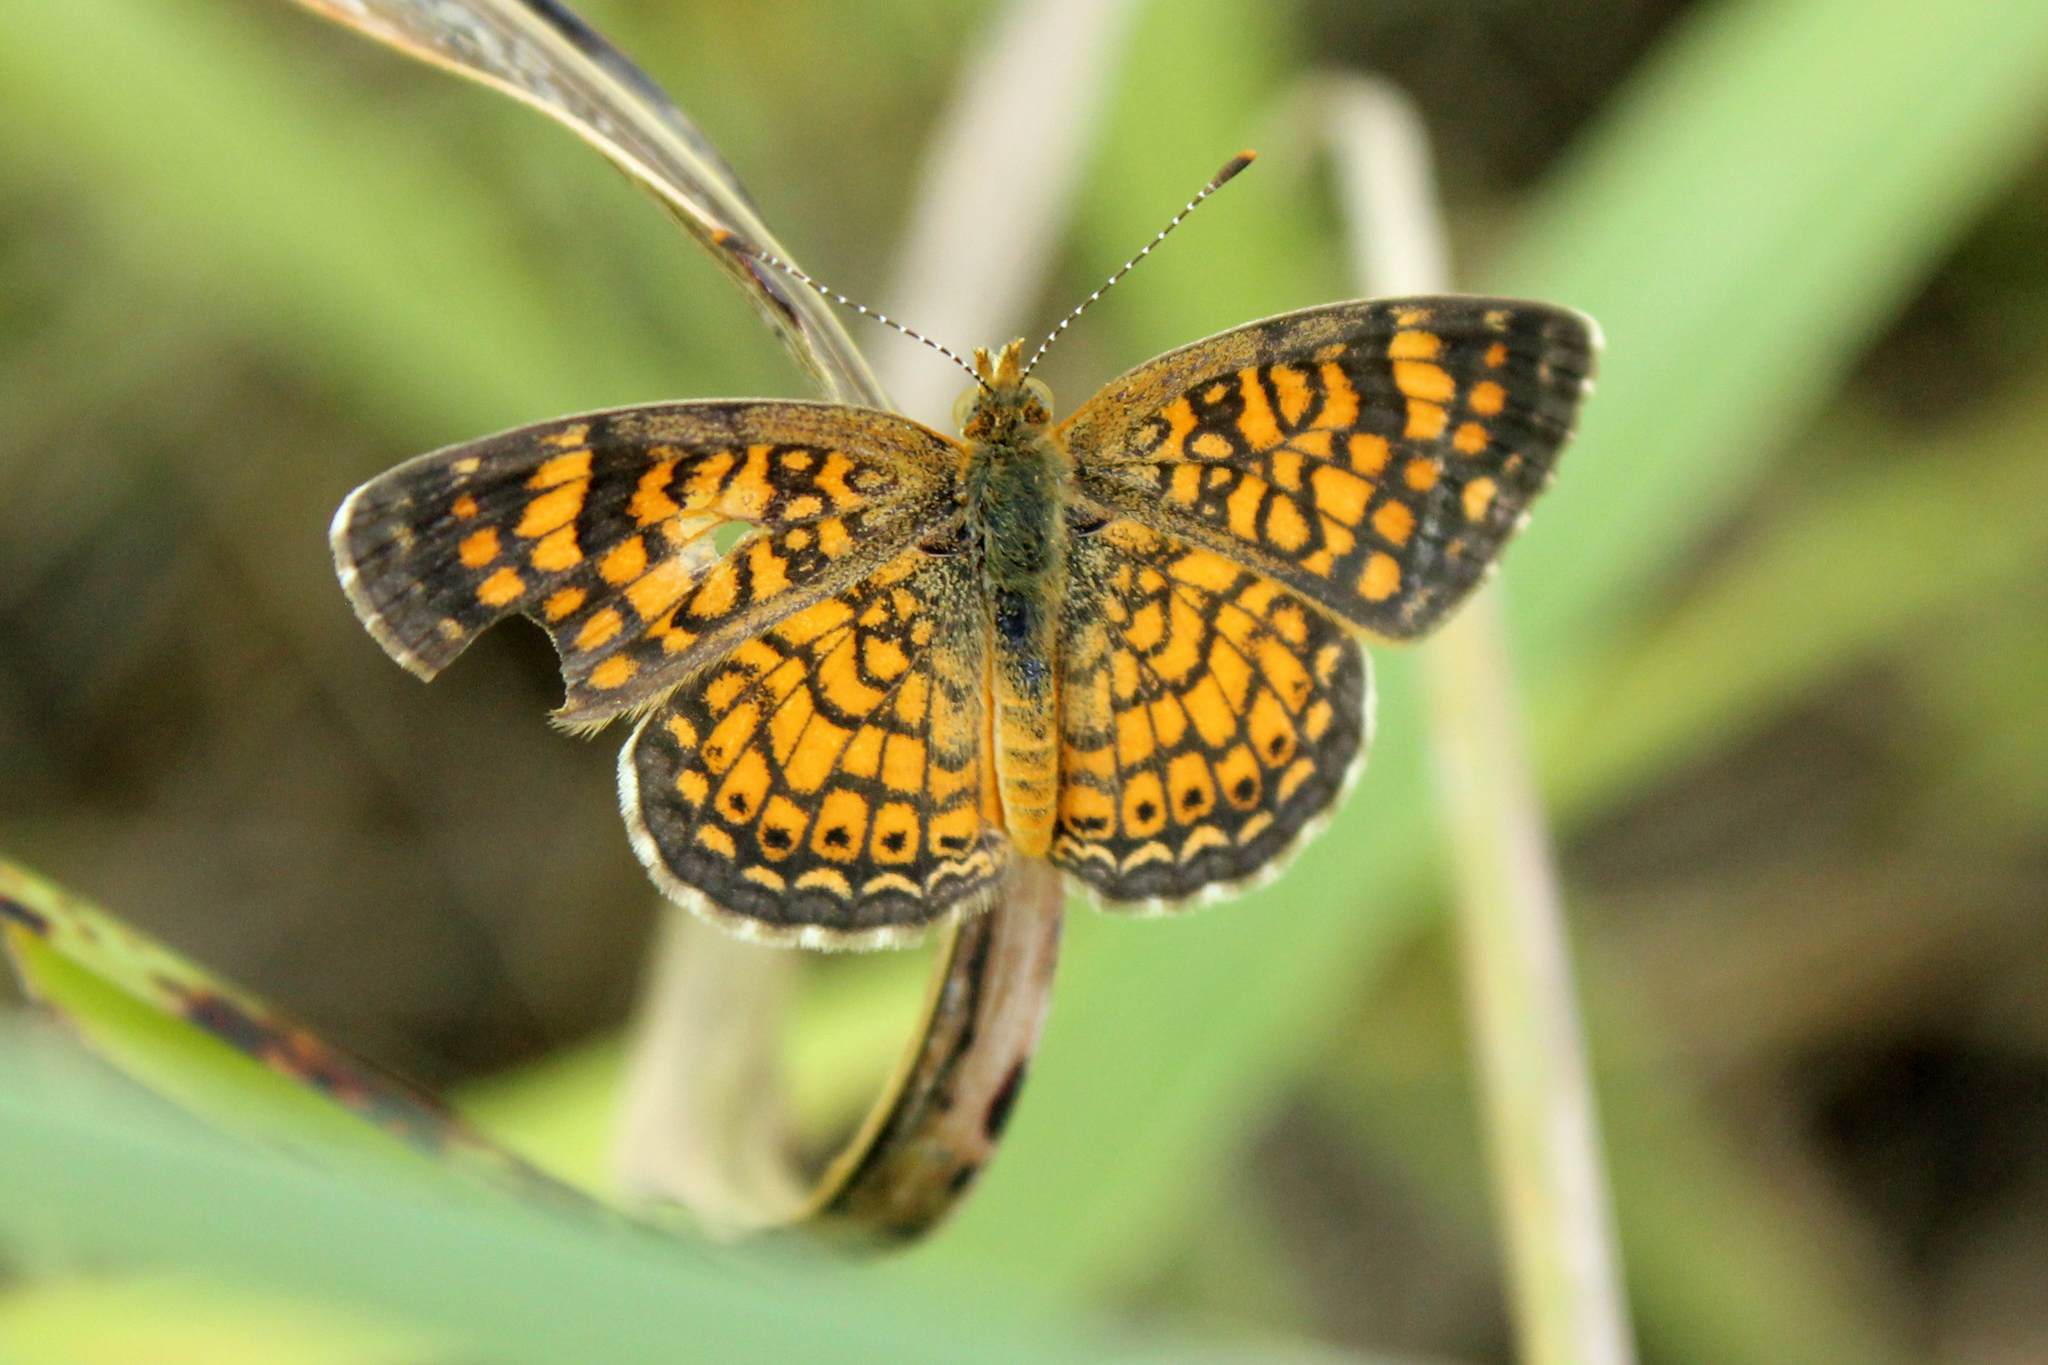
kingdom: Animalia
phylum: Arthropoda
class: Insecta
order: Lepidoptera
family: Nymphalidae
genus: Phyciodes
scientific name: Phyciodes vesta
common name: Vesta crescent
